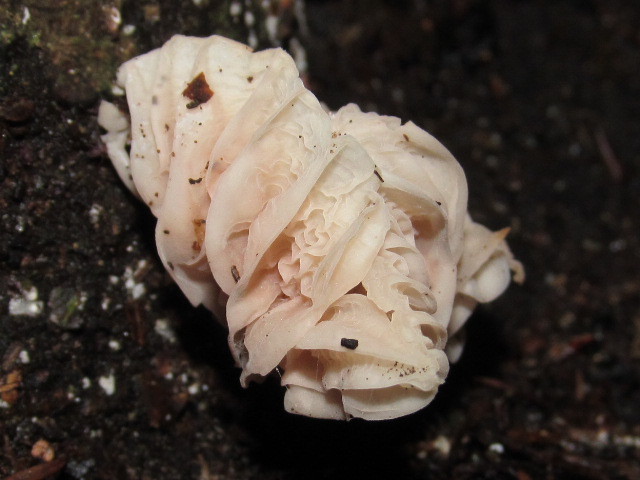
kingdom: Fungi
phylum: Basidiomycota
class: Agaricomycetes
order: Agaricales
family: Omphalotaceae
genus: Marasmiellus
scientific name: Marasmiellus candidus
